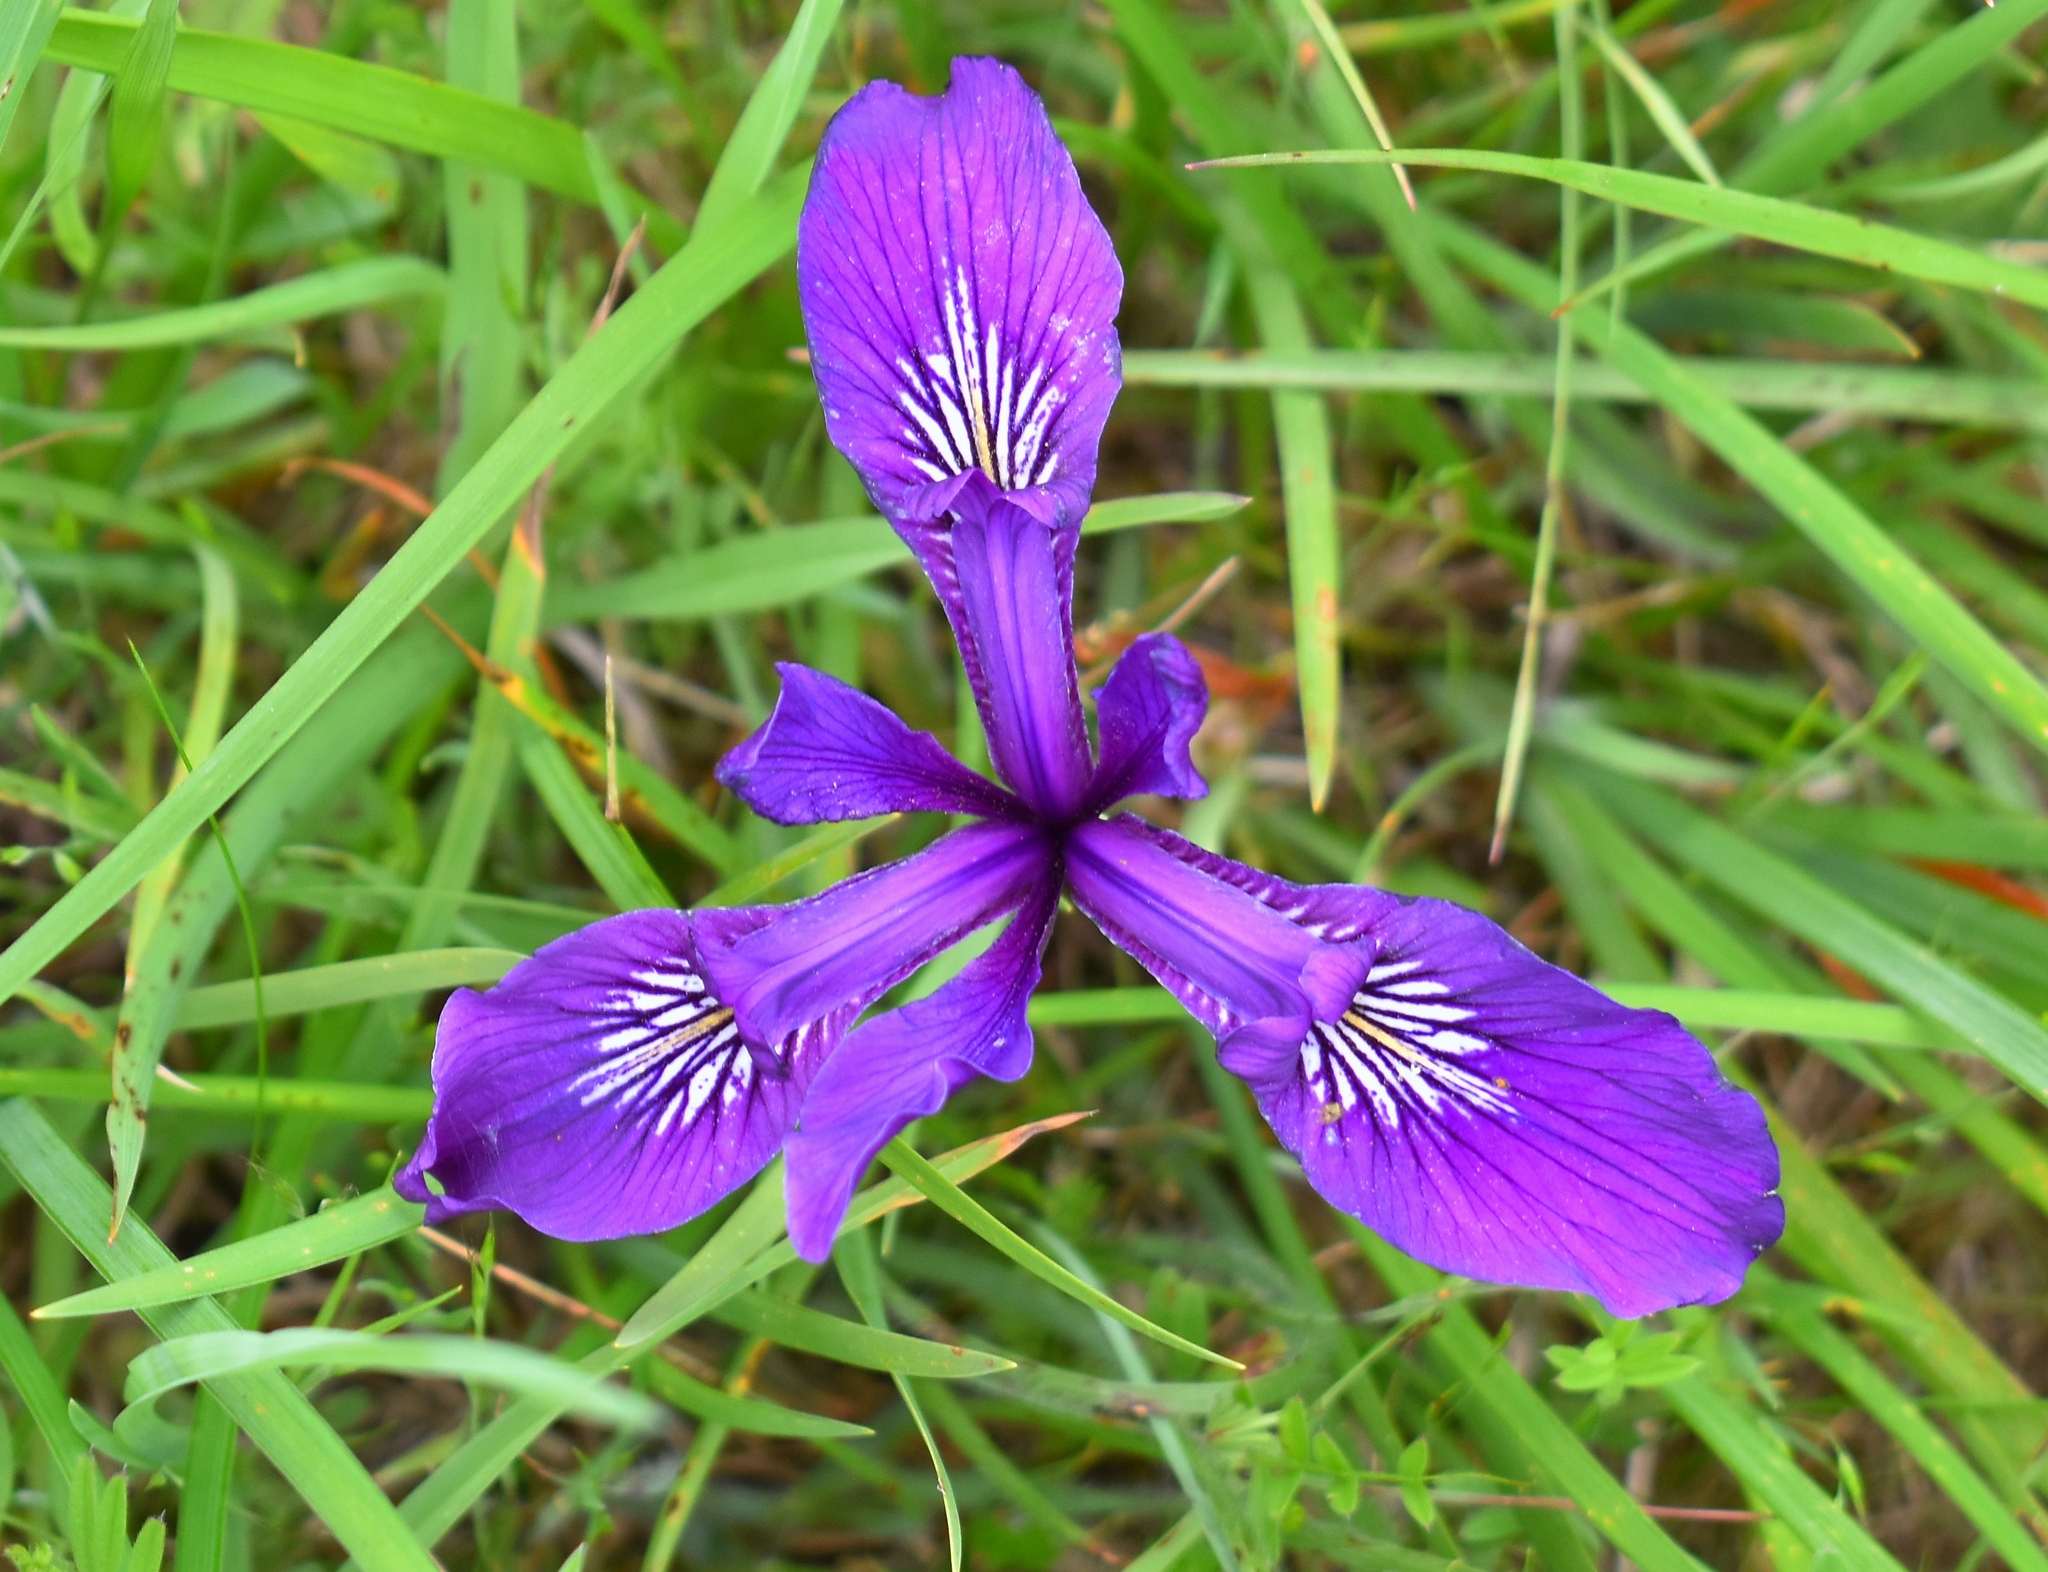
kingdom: Plantae
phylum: Tracheophyta
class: Liliopsida
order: Asparagales
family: Iridaceae
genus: Iris
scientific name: Iris tenax
